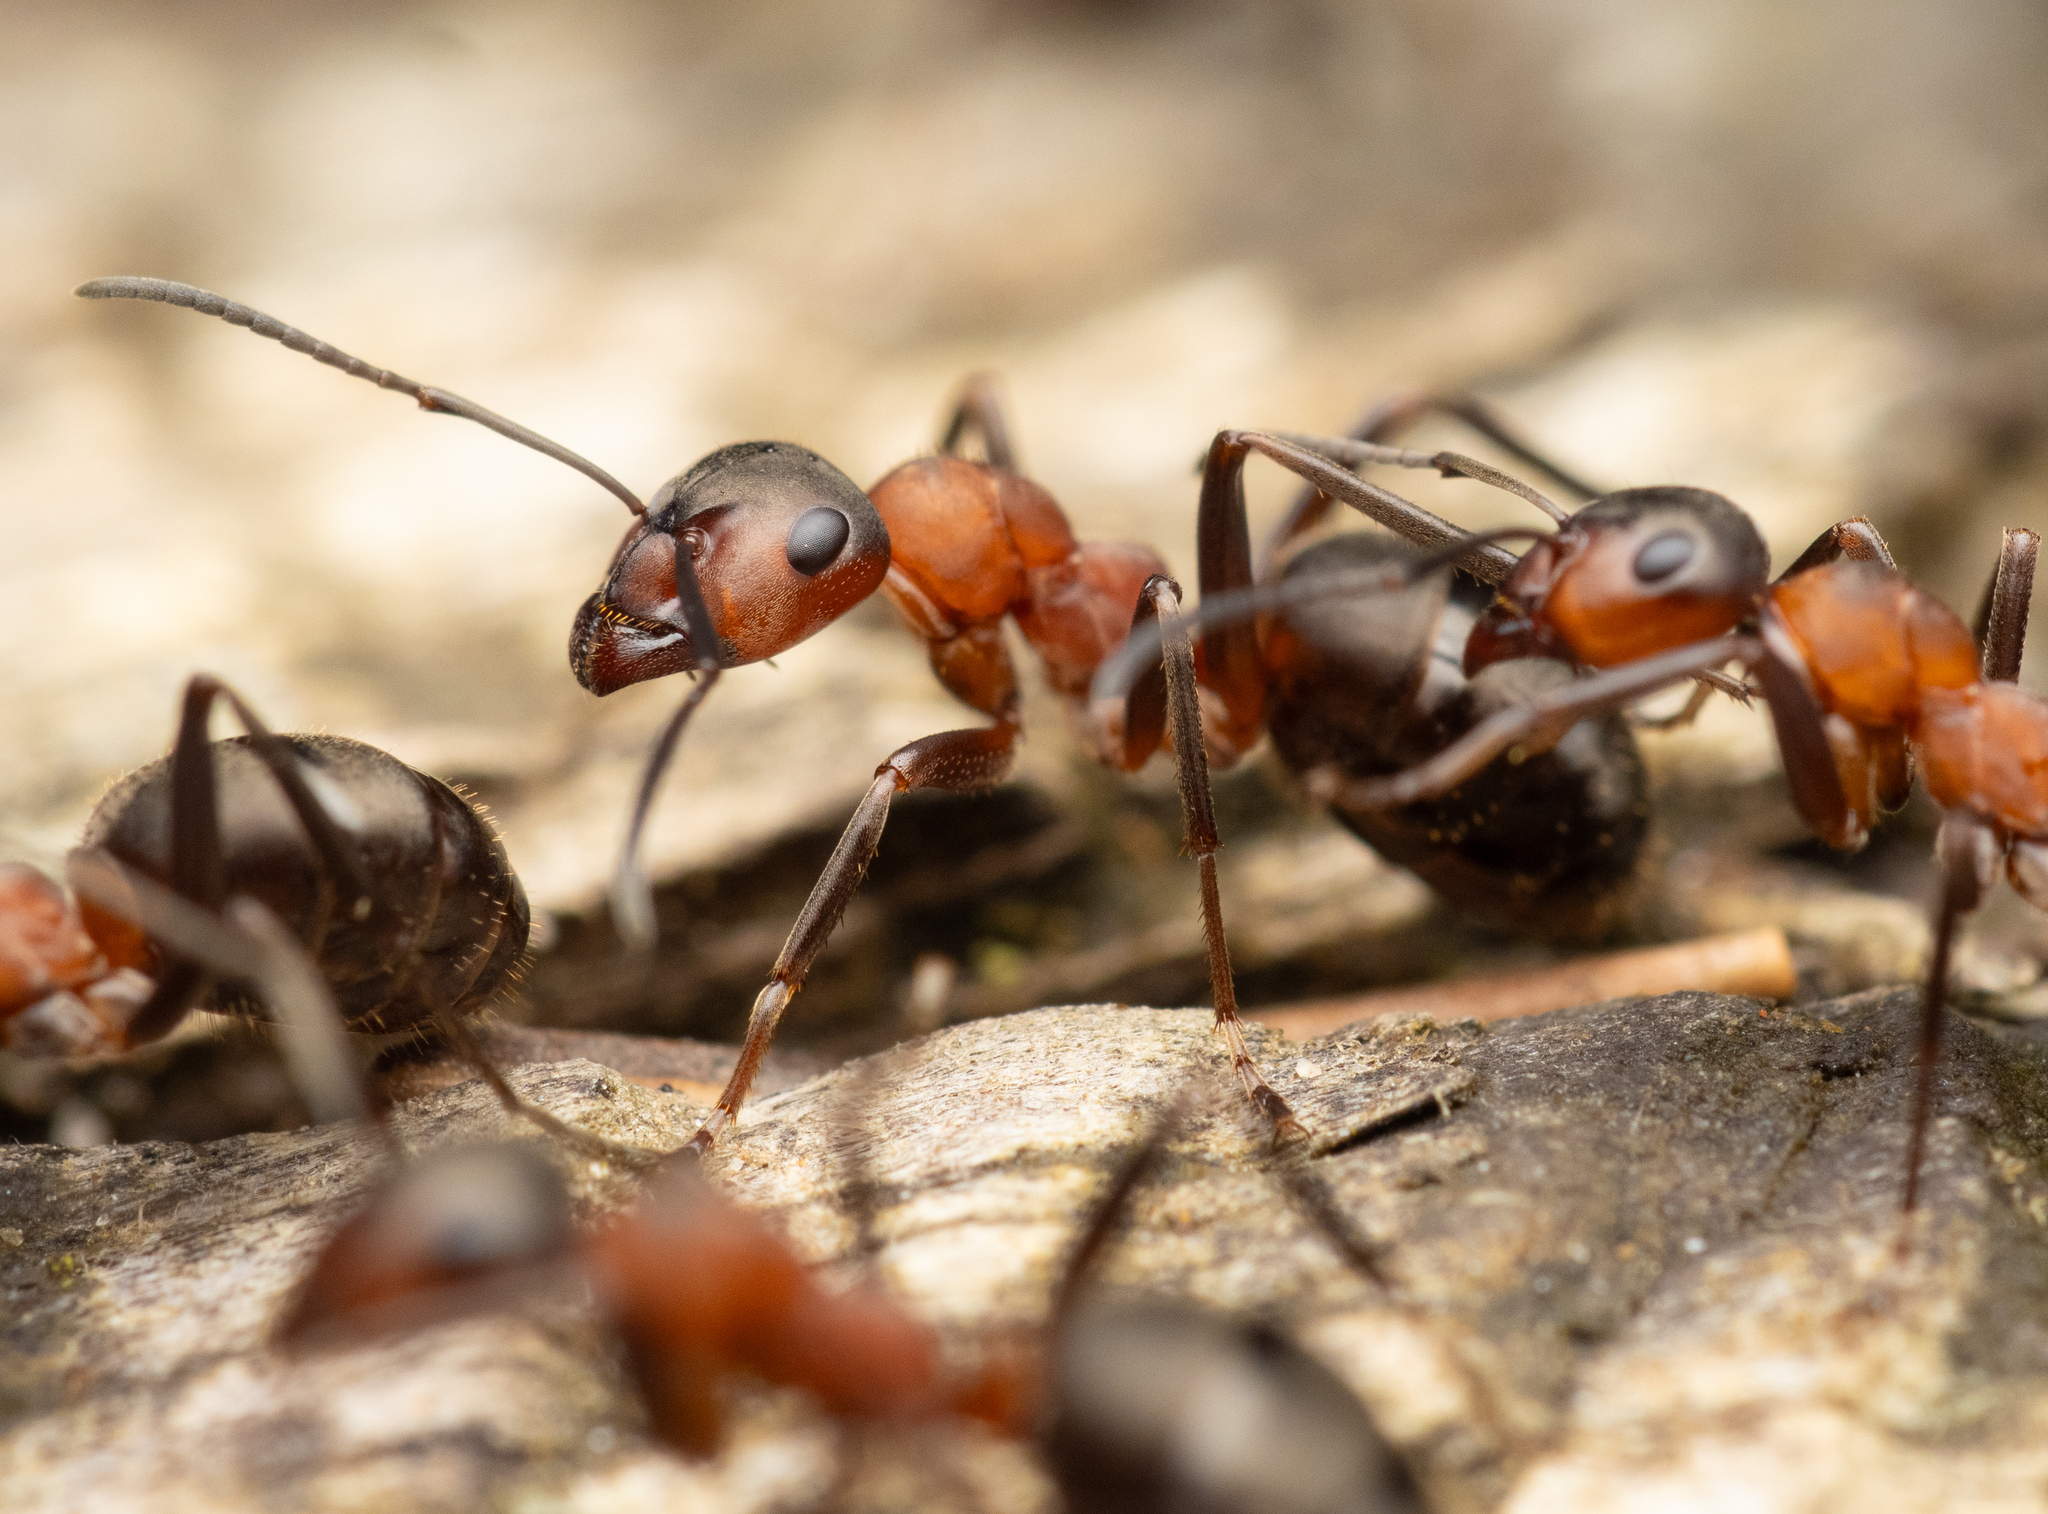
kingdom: Animalia
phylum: Arthropoda
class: Insecta
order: Hymenoptera
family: Formicidae
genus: Formica
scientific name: Formica rufa
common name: Red wood ant
